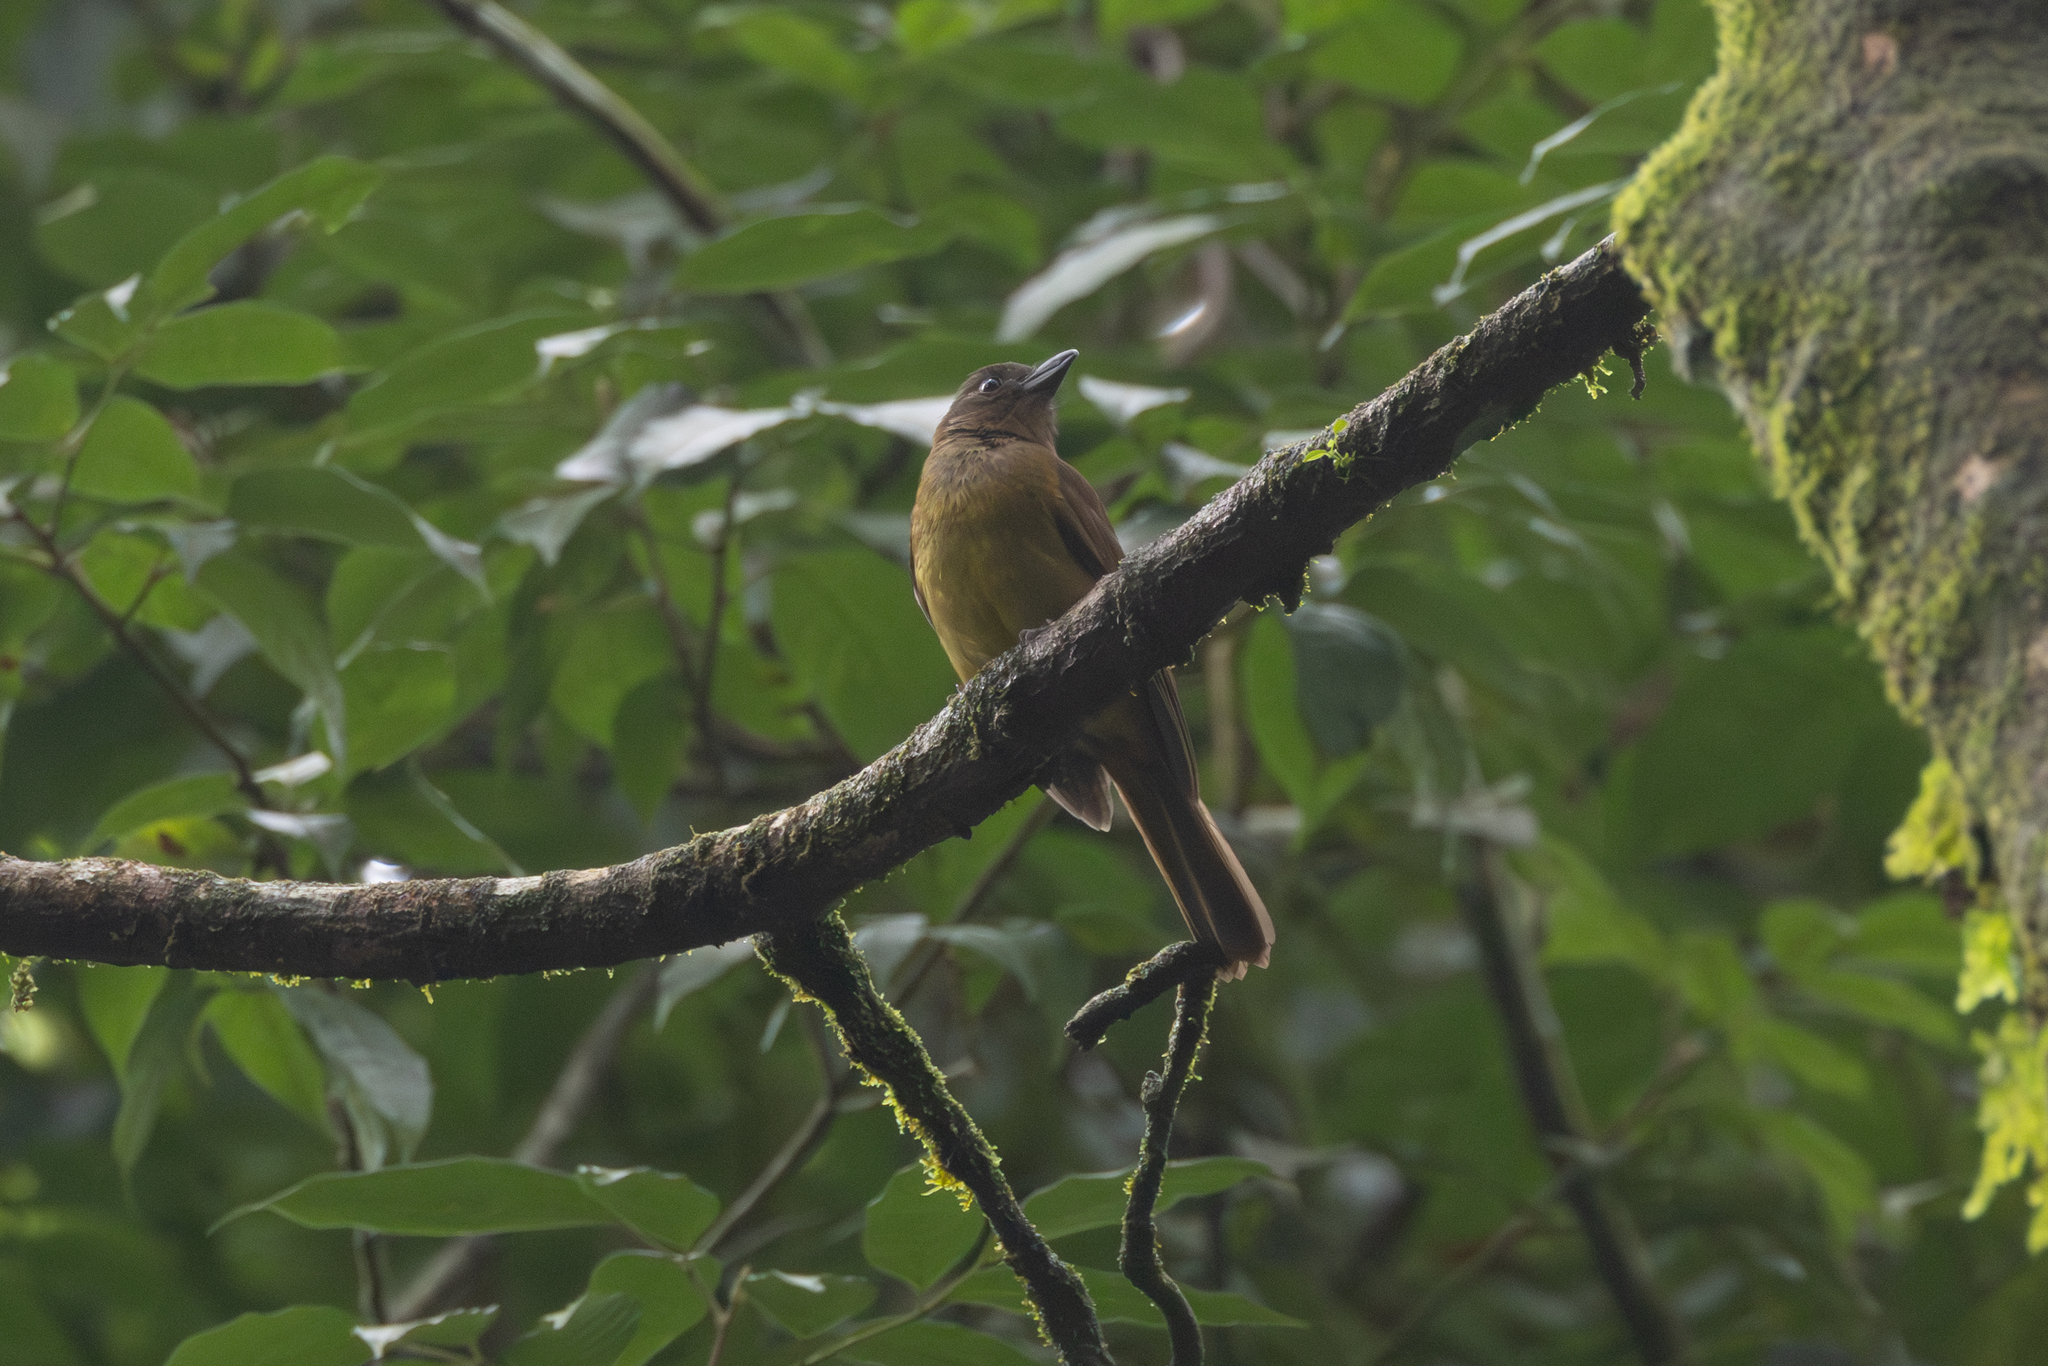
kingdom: Animalia
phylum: Chordata
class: Aves
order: Passeriformes
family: Thraupidae
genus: Lanio
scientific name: Lanio leucothorax
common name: White-throated shrike-tanager
